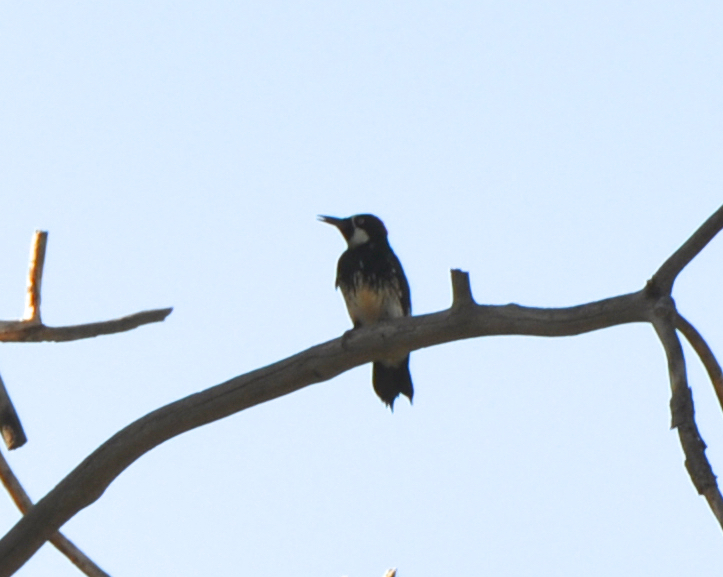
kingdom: Animalia
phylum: Chordata
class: Aves
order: Piciformes
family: Picidae
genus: Melanerpes
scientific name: Melanerpes formicivorus
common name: Acorn woodpecker
